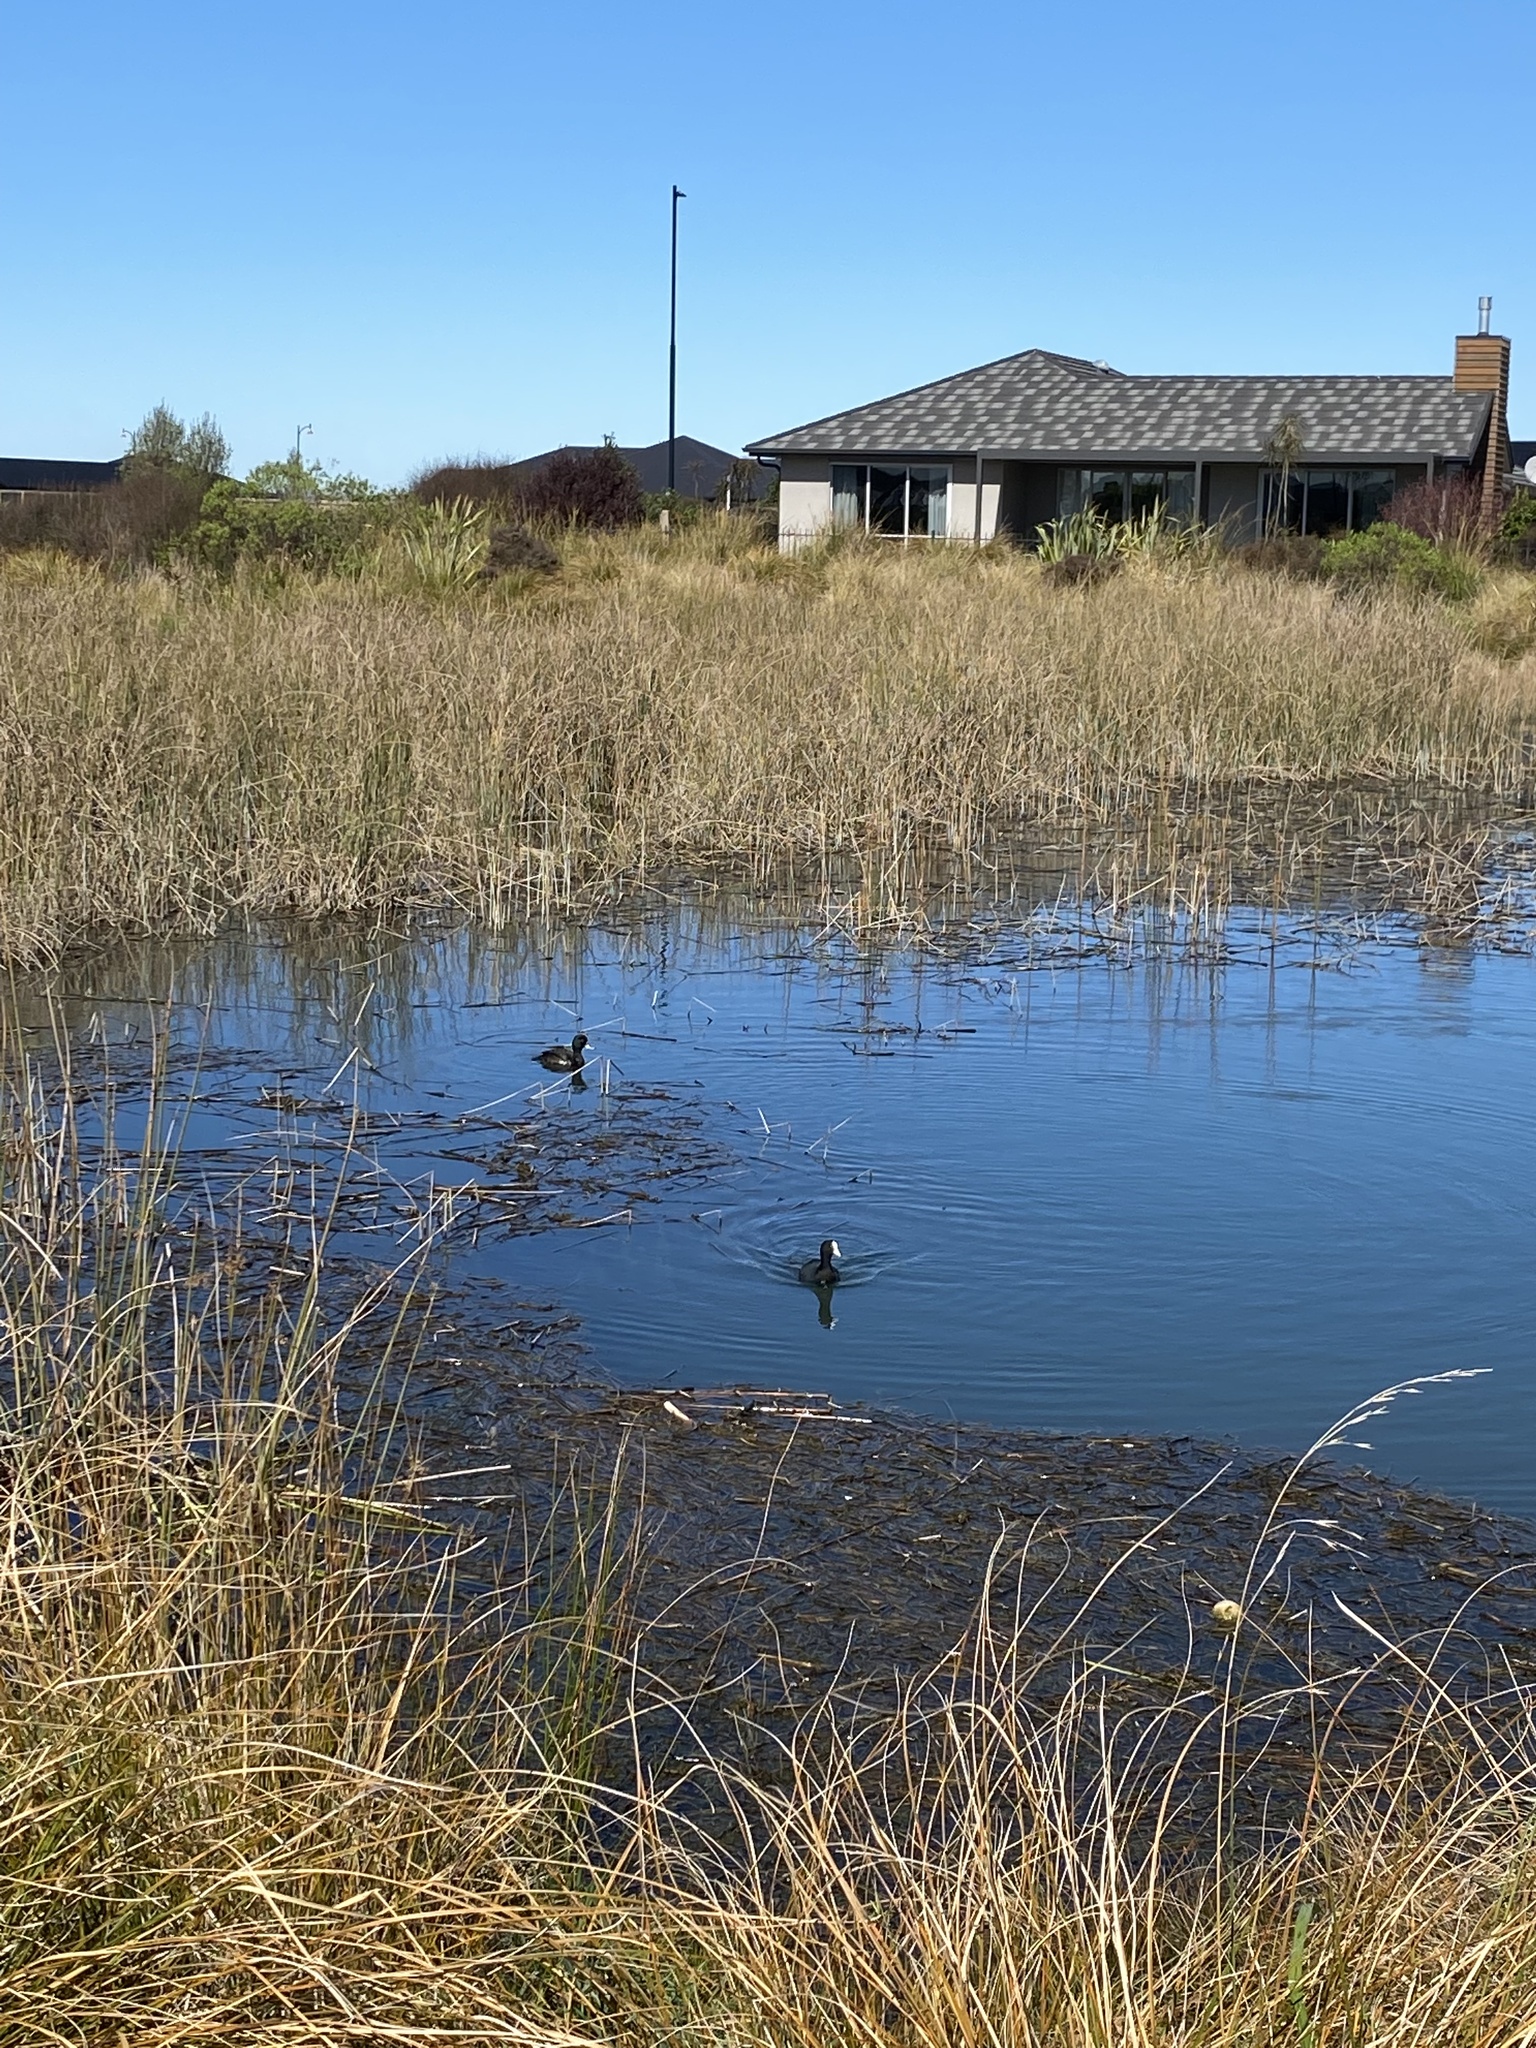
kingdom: Animalia
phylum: Chordata
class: Aves
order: Gruiformes
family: Rallidae
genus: Fulica
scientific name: Fulica atra
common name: Eurasian coot
